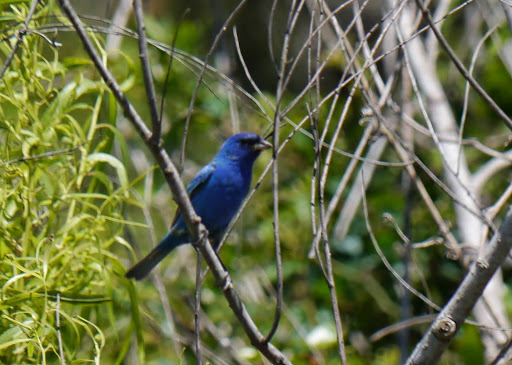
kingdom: Animalia
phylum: Chordata
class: Aves
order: Passeriformes
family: Cardinalidae
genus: Passerina
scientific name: Passerina cyanea
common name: Indigo bunting
